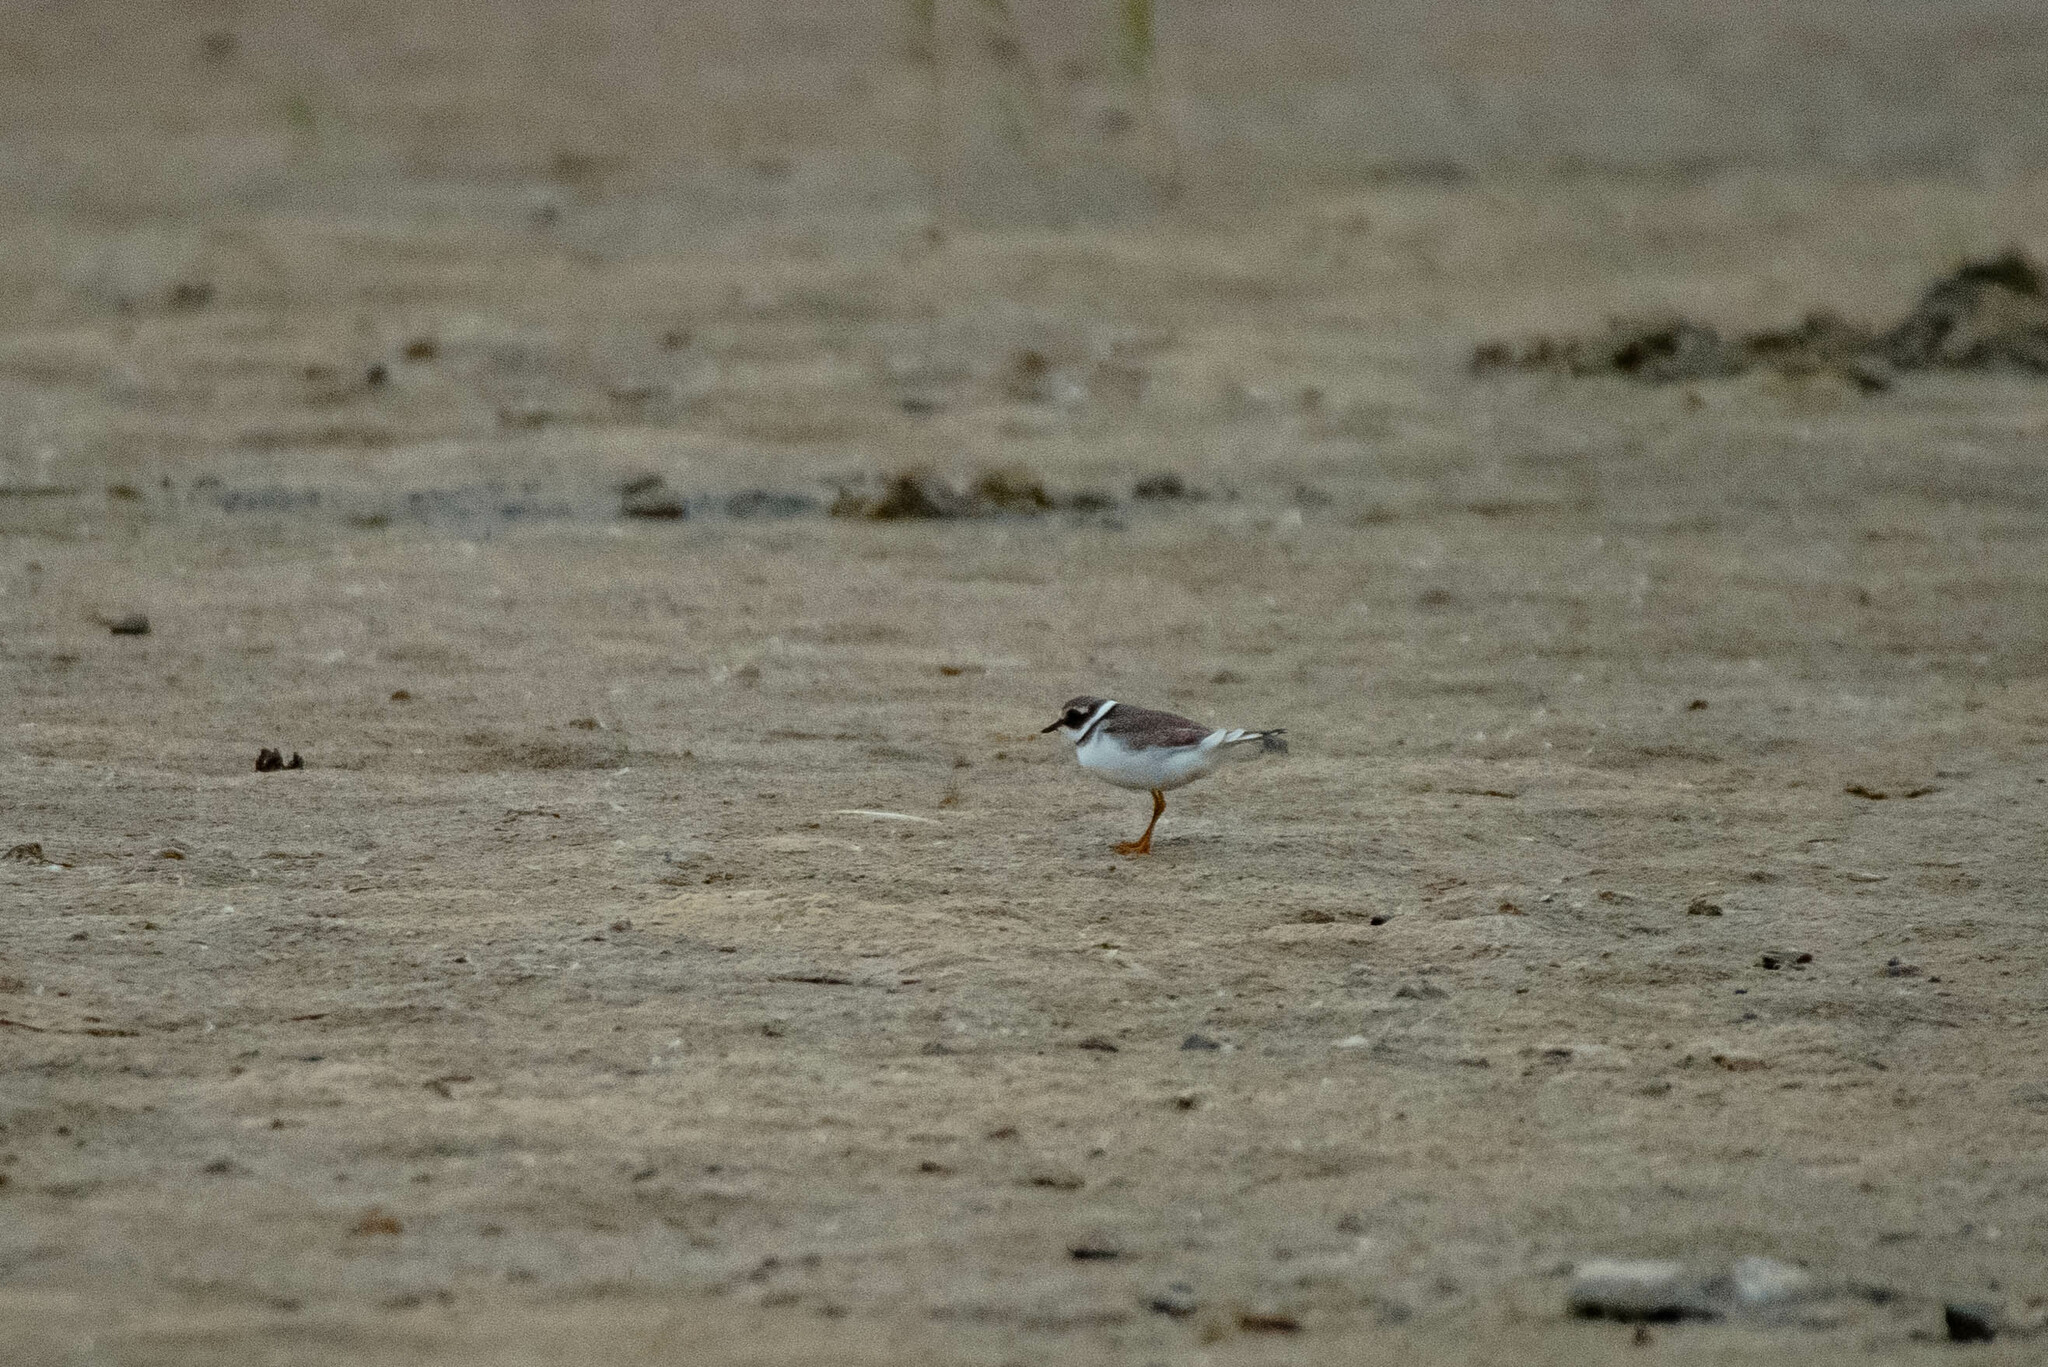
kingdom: Animalia
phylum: Chordata
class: Aves
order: Charadriiformes
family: Charadriidae
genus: Charadrius
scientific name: Charadrius hiaticula
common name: Common ringed plover
